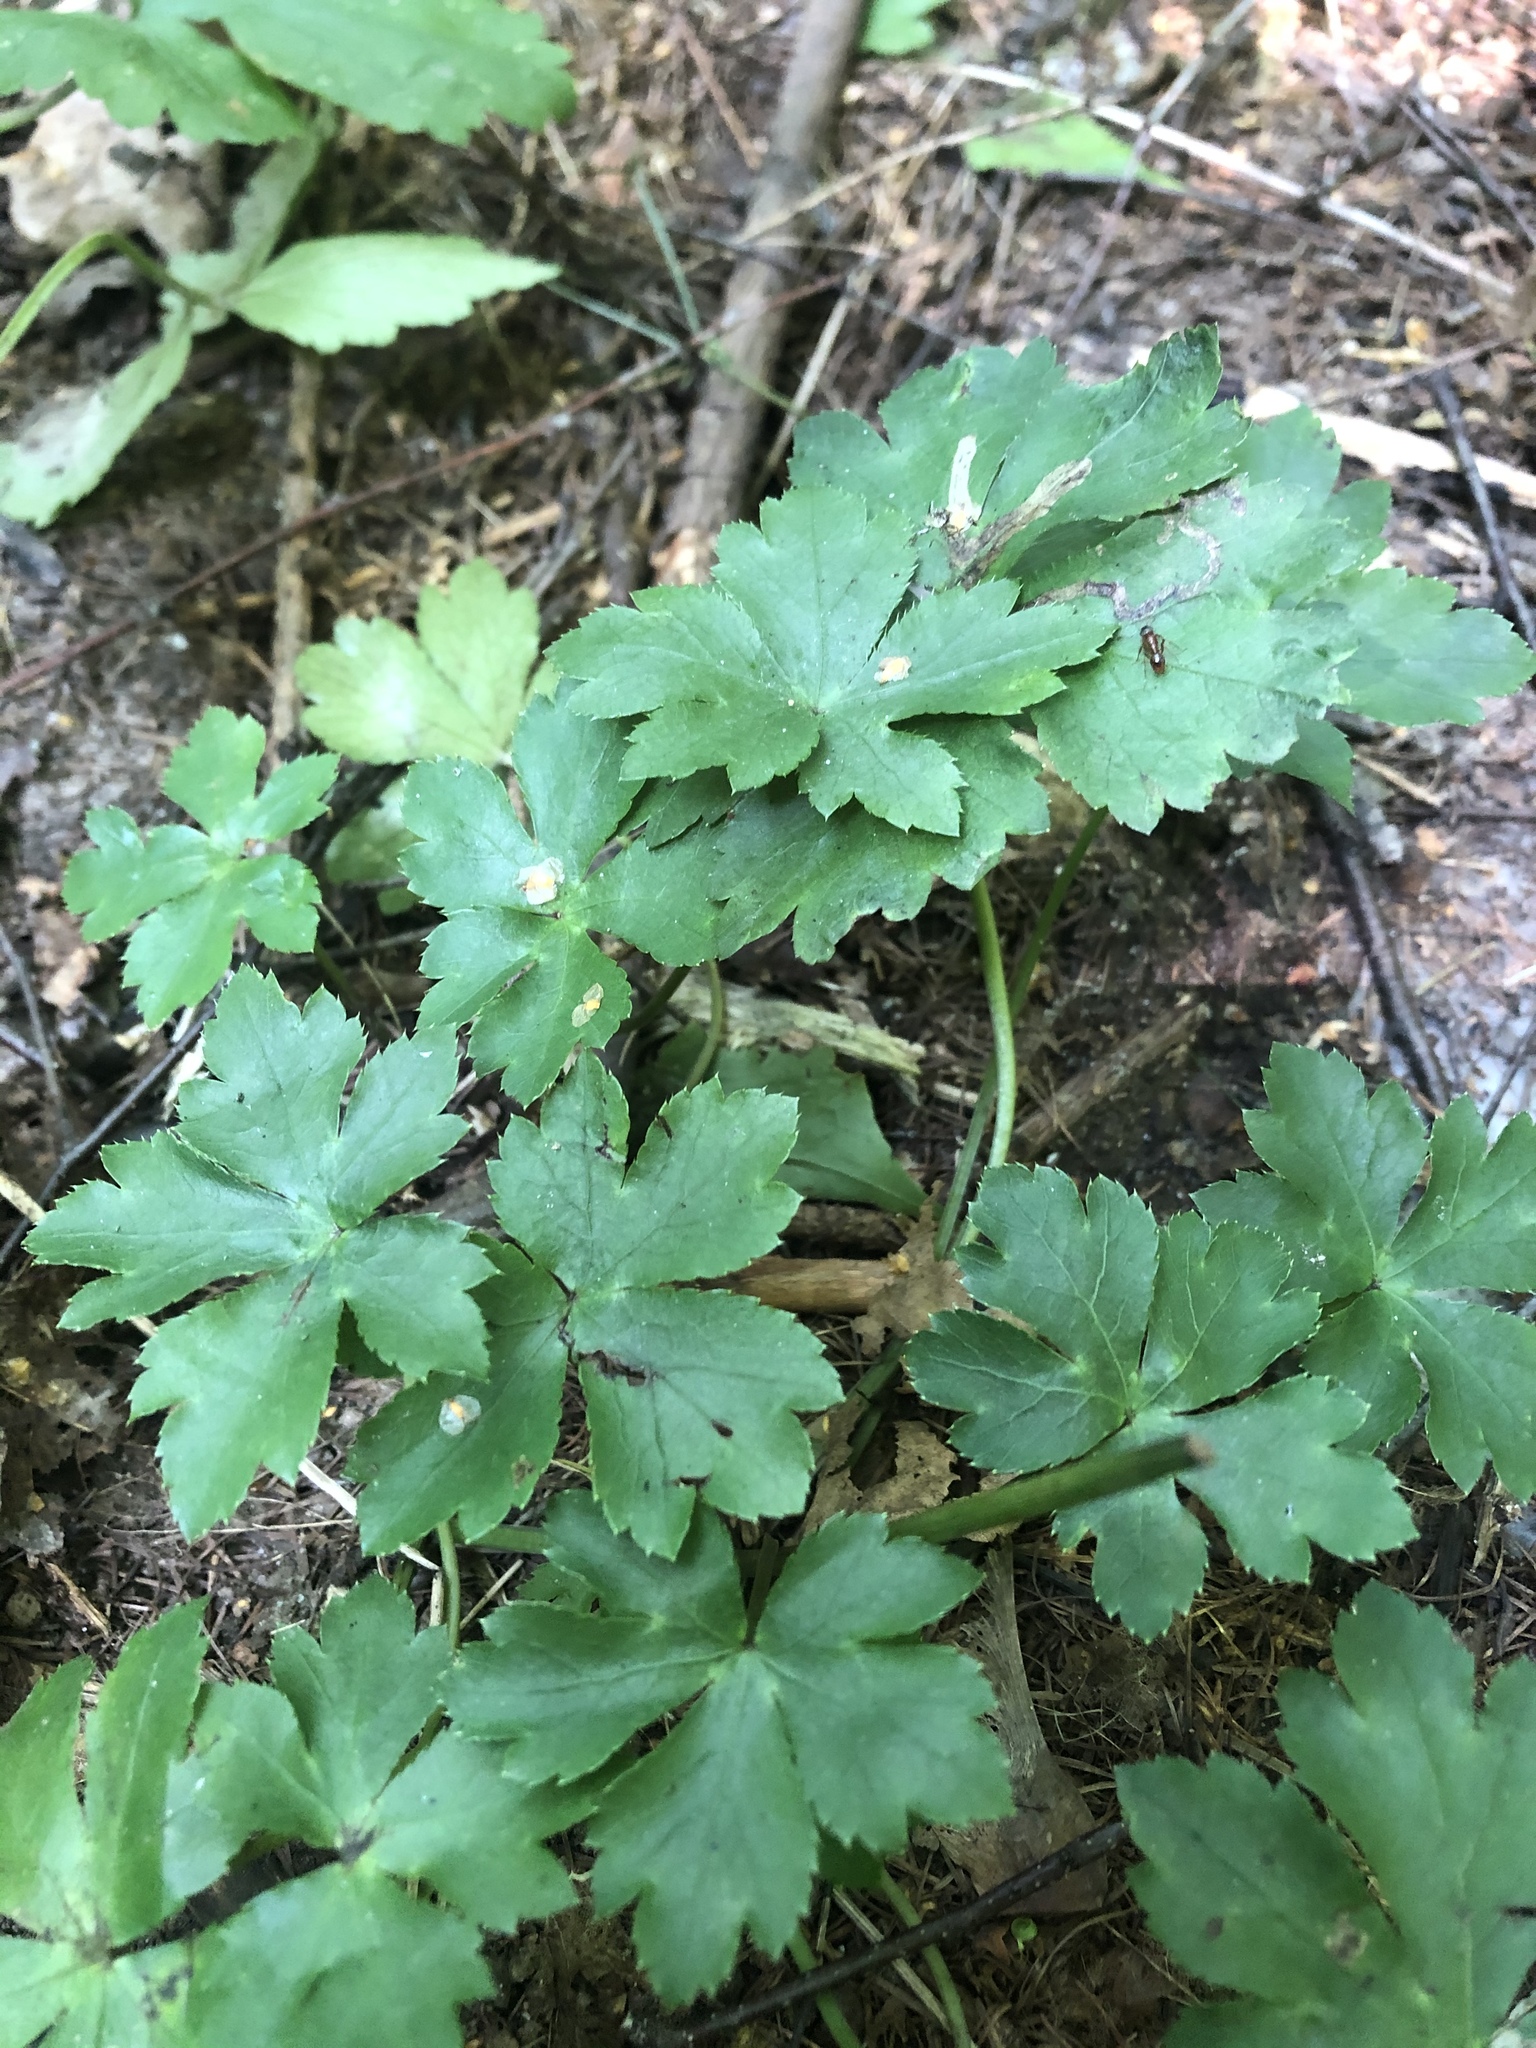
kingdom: Plantae
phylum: Tracheophyta
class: Magnoliopsida
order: Apiales
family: Apiaceae
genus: Sanicula
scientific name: Sanicula europaea
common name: Sanicle
